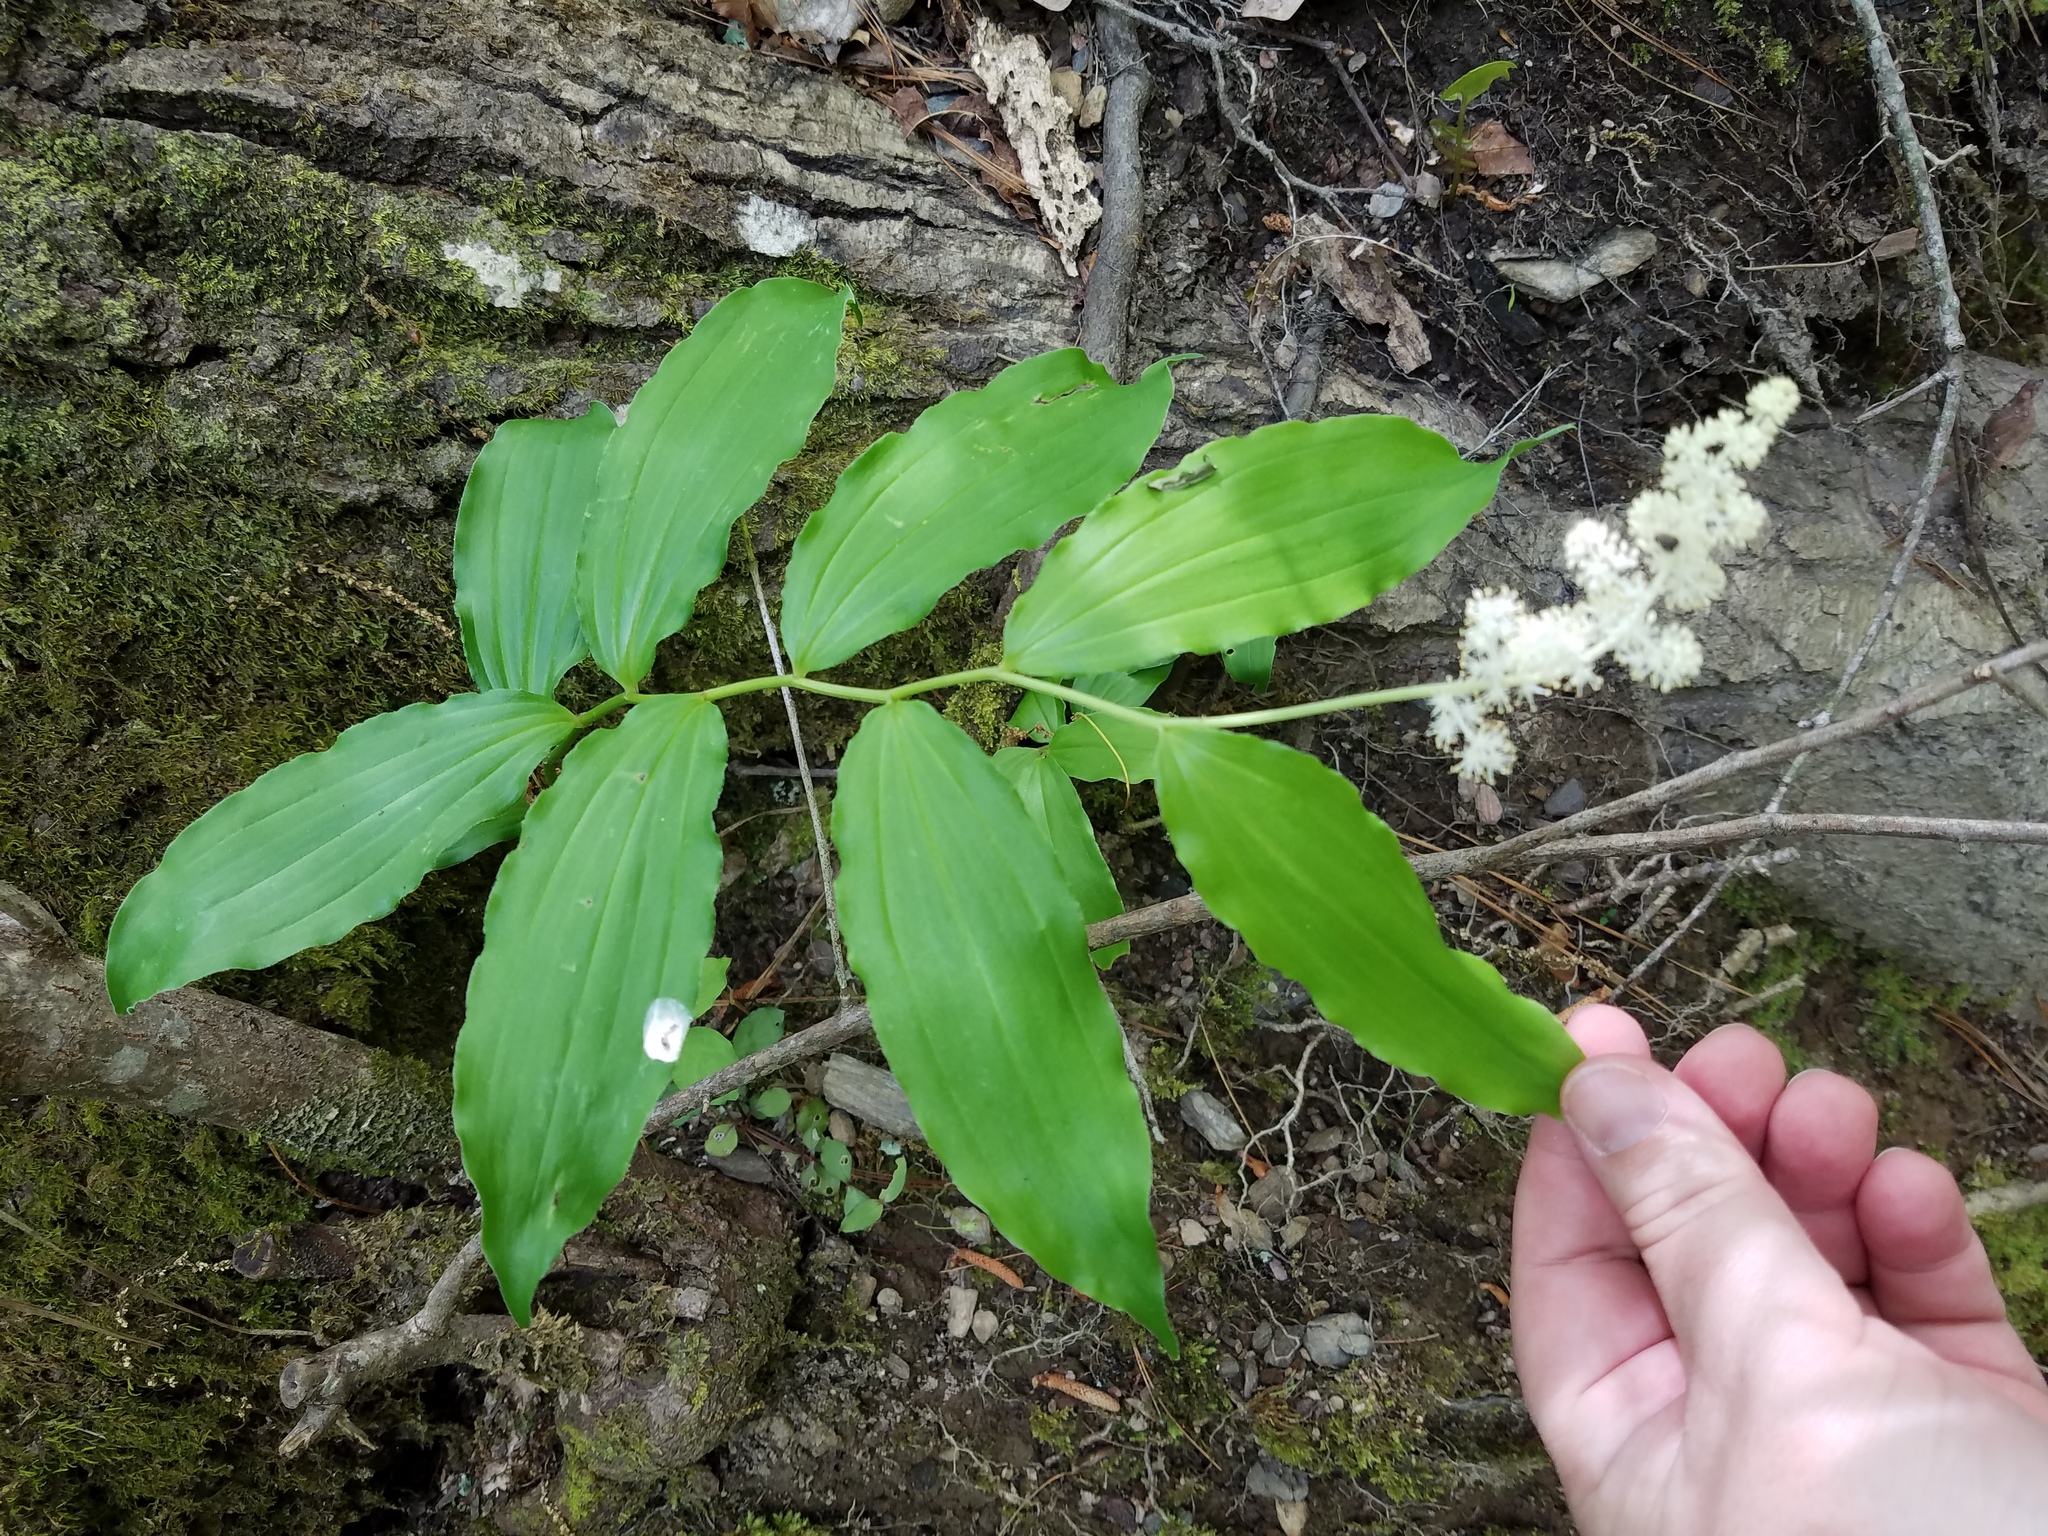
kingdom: Plantae
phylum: Tracheophyta
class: Liliopsida
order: Asparagales
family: Asparagaceae
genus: Maianthemum
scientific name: Maianthemum racemosum
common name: False spikenard
